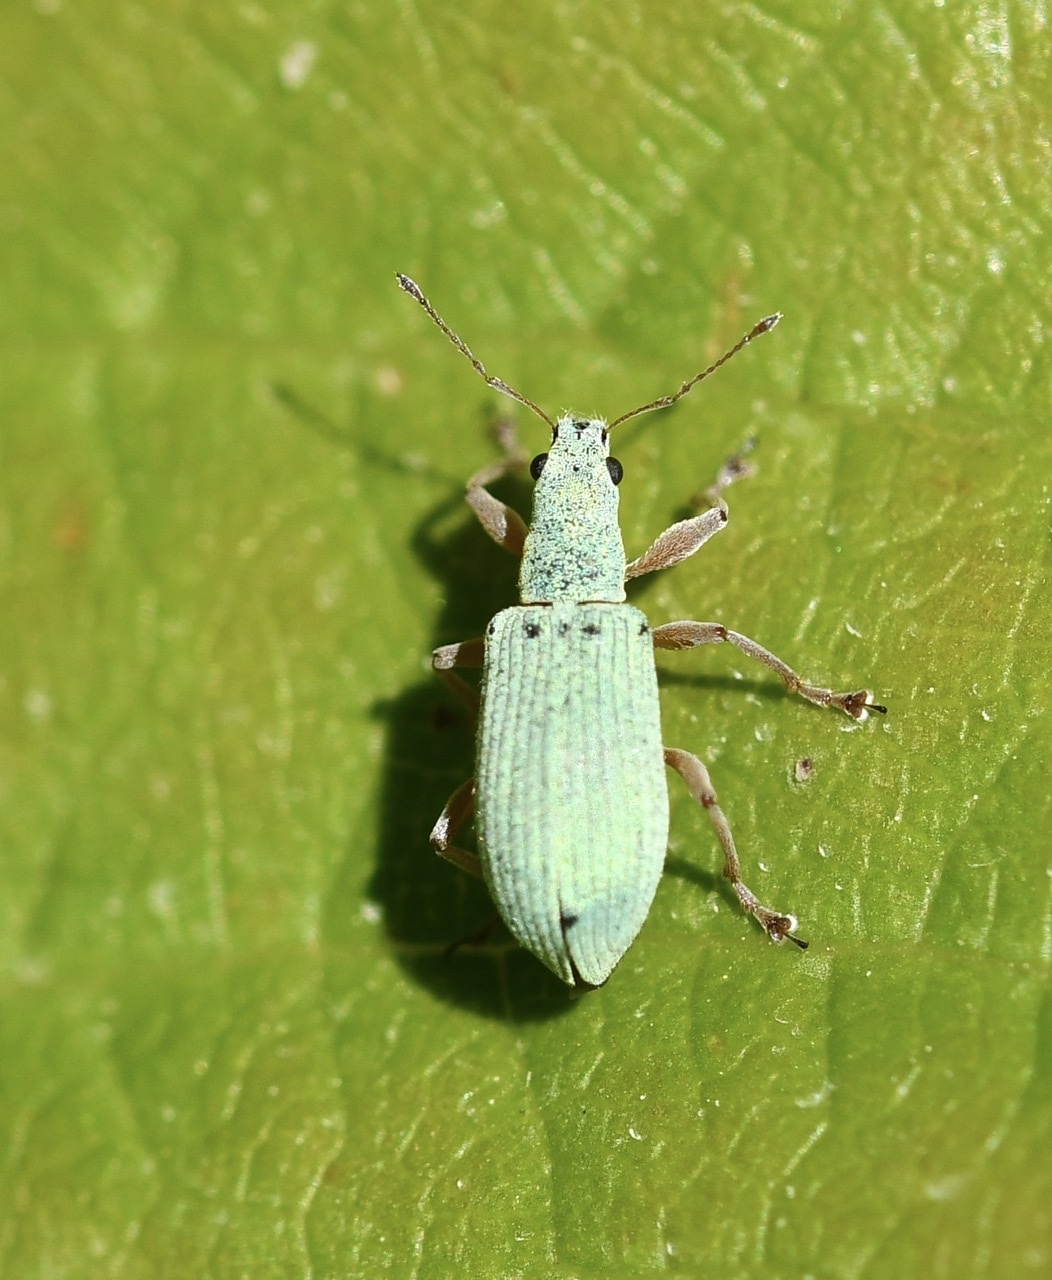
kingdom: Animalia
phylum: Arthropoda
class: Insecta
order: Coleoptera
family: Curculionidae
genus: Polydrusus
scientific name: Polydrusus impressifrons
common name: Weevil
